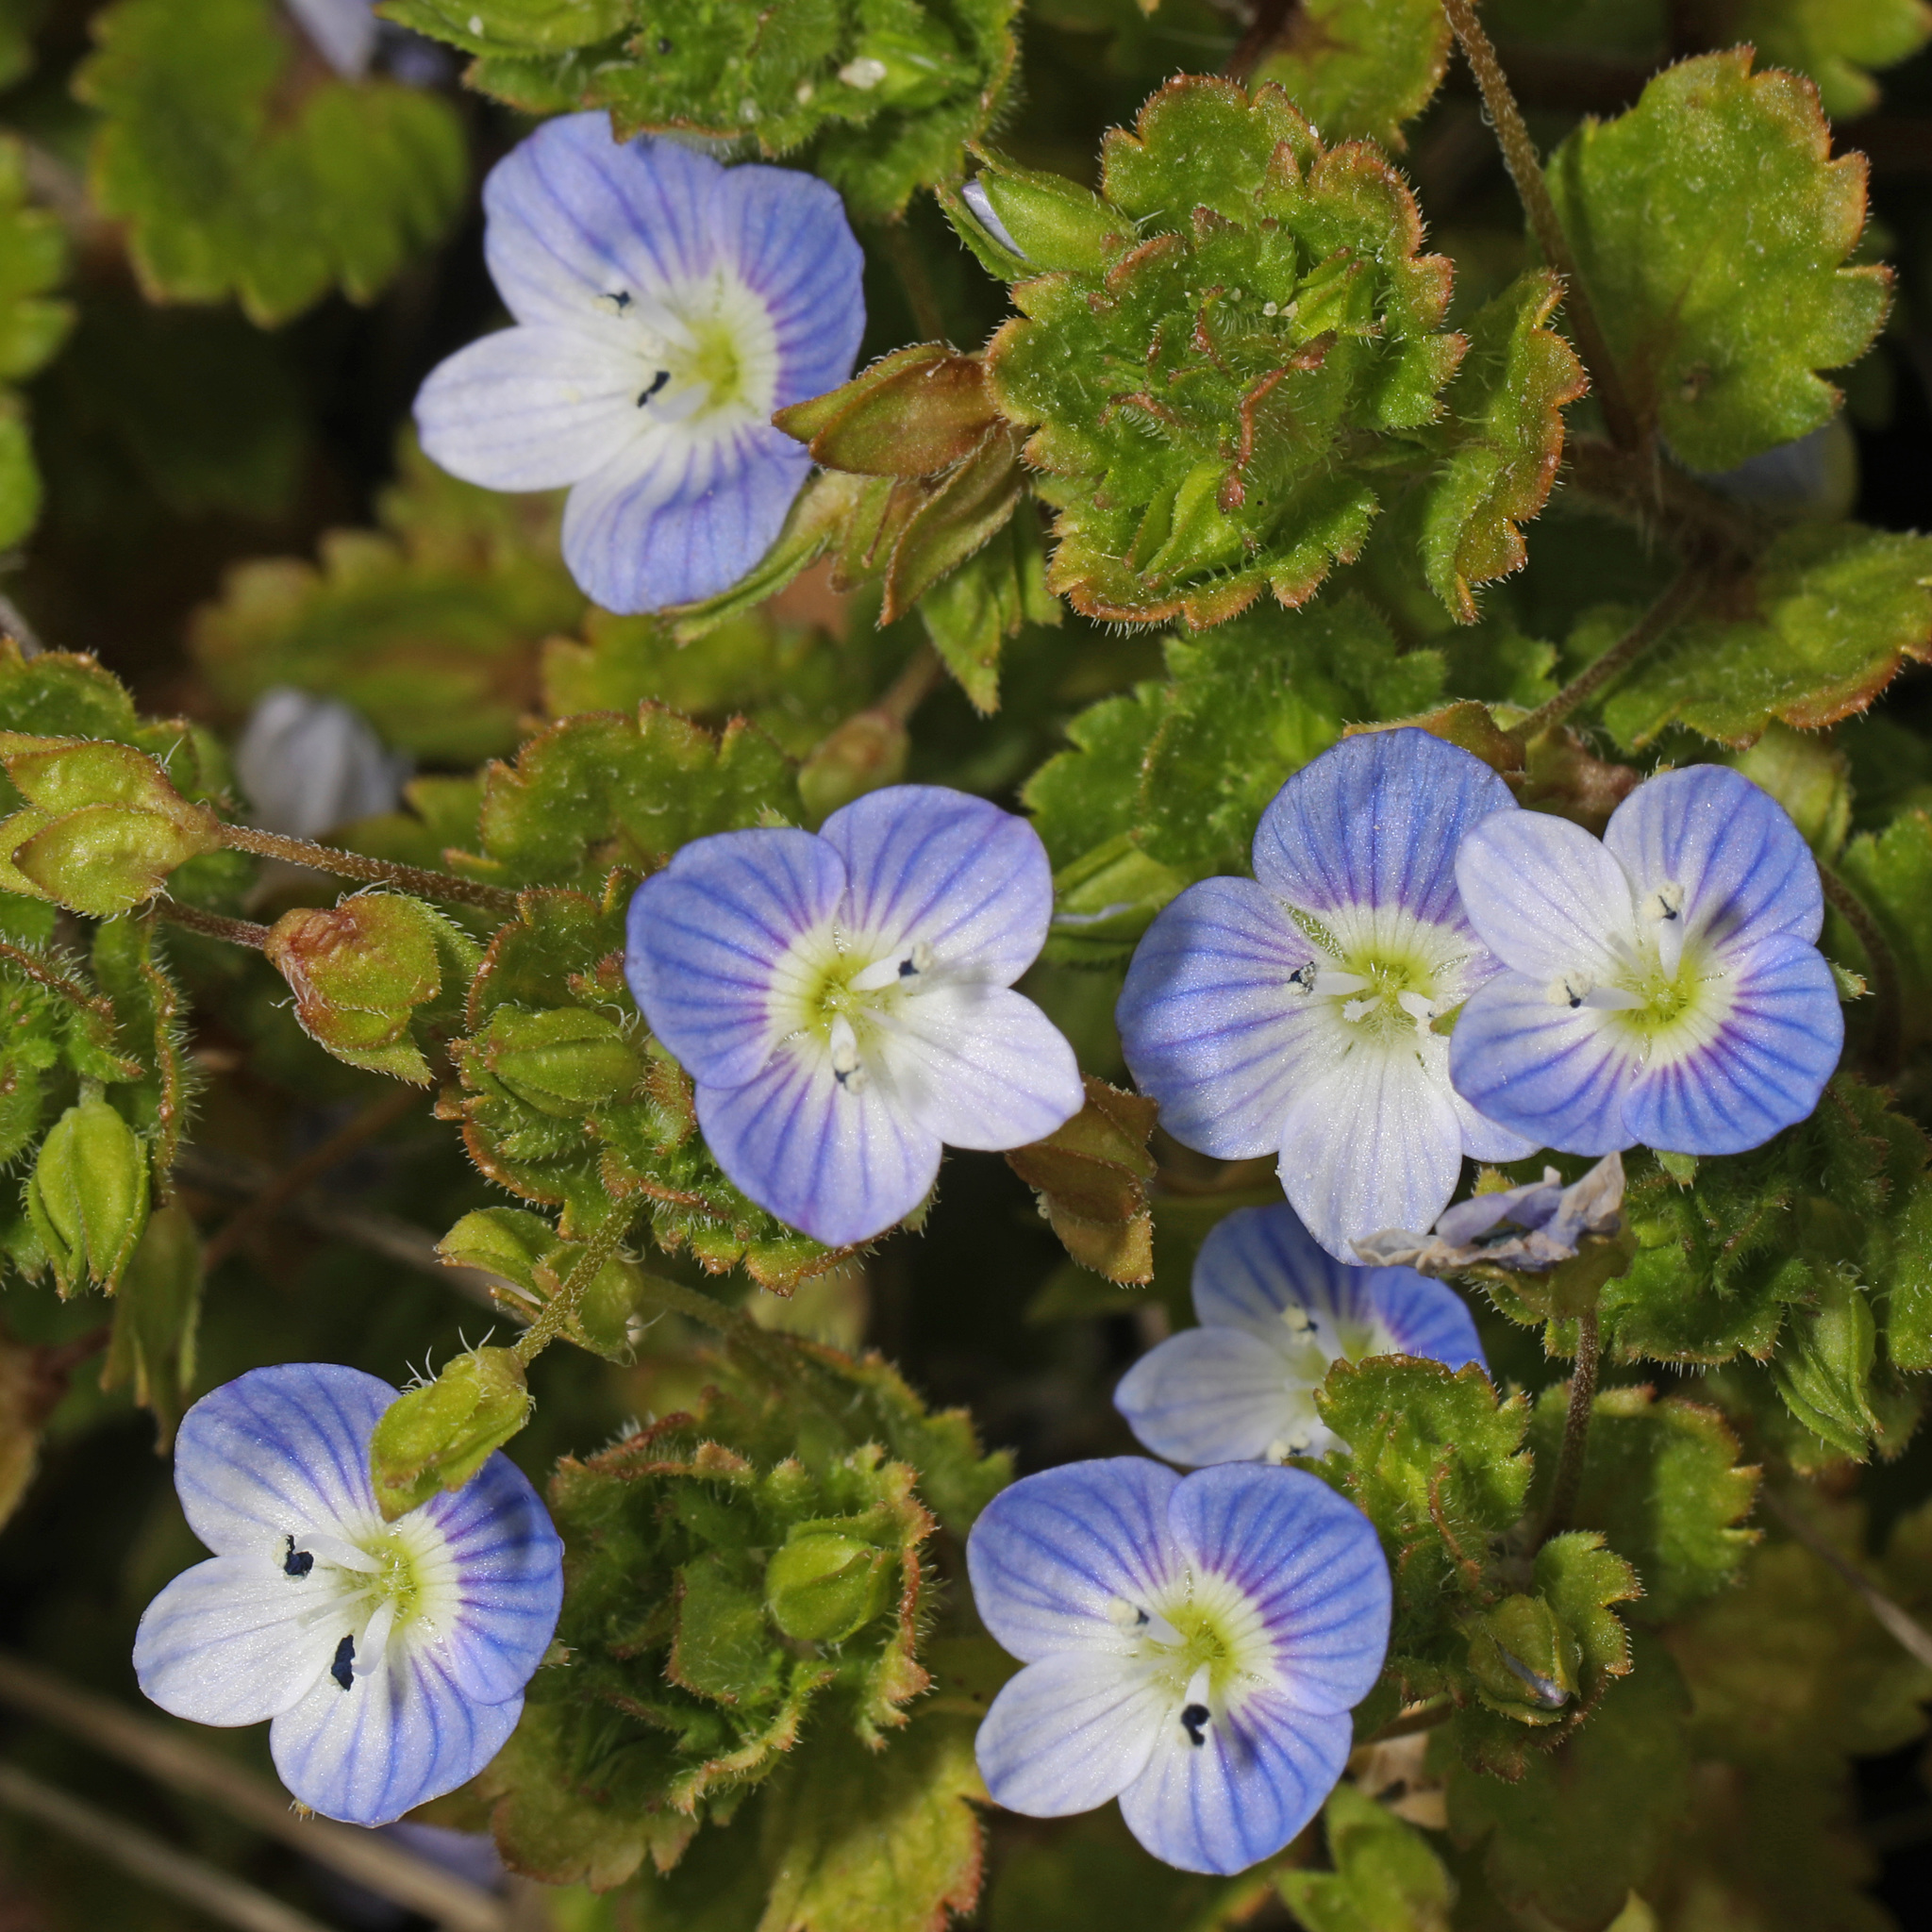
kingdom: Plantae
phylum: Tracheophyta
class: Magnoliopsida
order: Lamiales
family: Plantaginaceae
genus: Veronica
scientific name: Veronica persica
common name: Common field-speedwell
